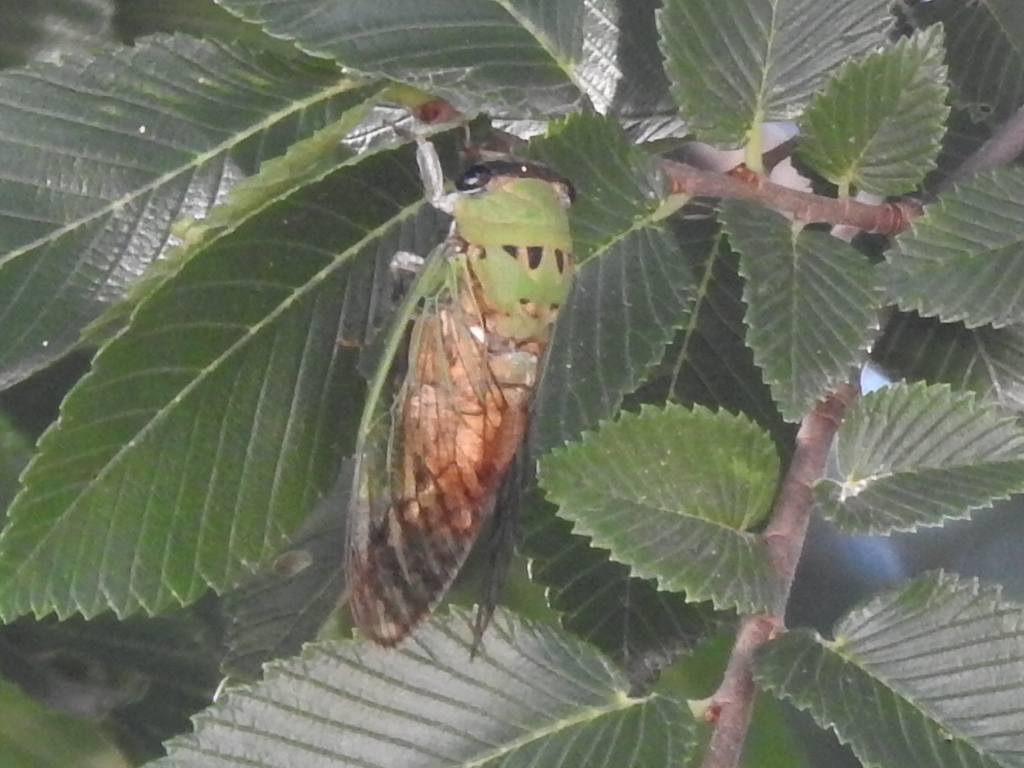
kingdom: Animalia
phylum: Arthropoda
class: Insecta
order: Hemiptera
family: Cicadidae
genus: Neotibicen
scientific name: Neotibicen superbus
